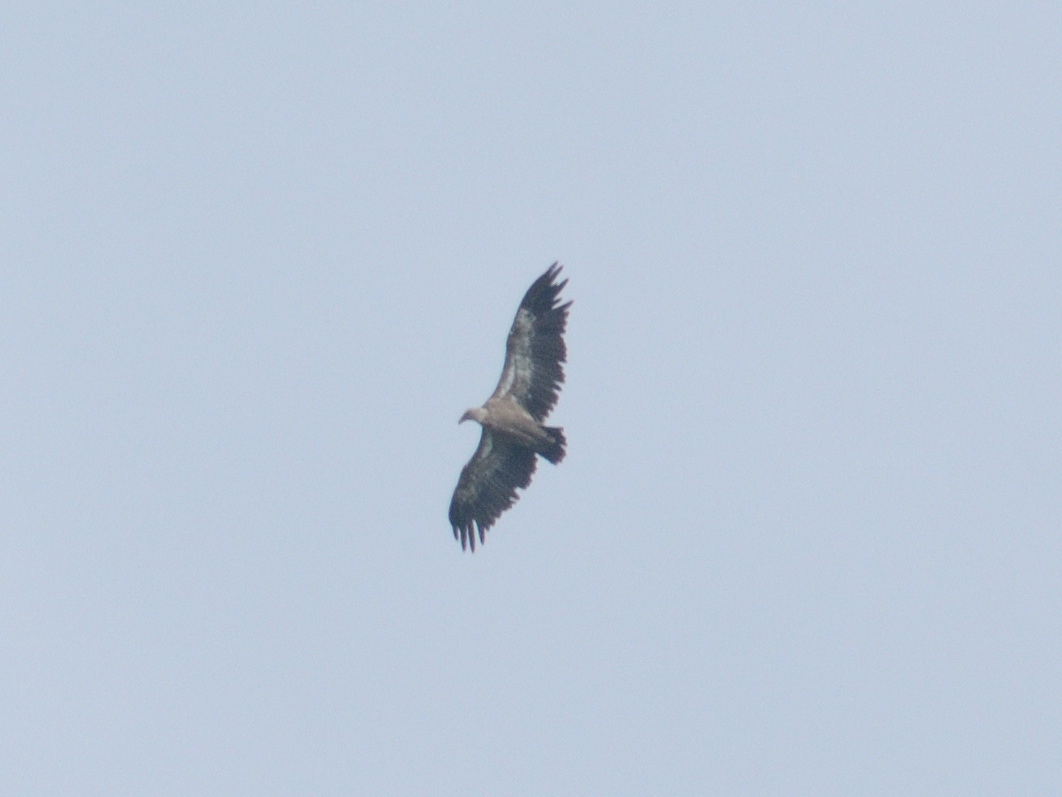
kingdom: Animalia
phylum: Chordata
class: Aves
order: Accipitriformes
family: Accipitridae
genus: Gyps
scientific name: Gyps fulvus
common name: Griffon vulture
